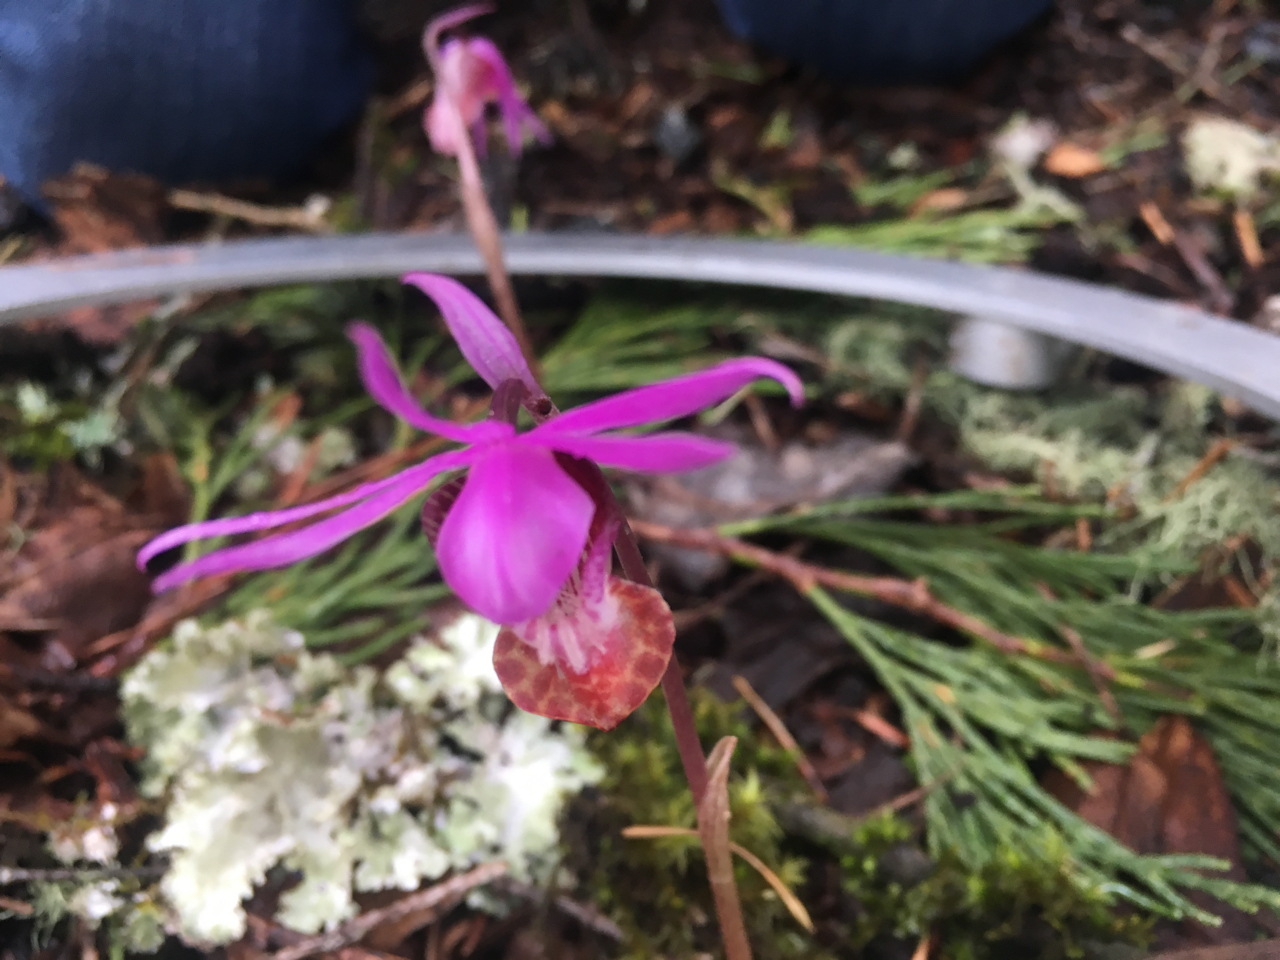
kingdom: Plantae
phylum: Tracheophyta
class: Liliopsida
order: Asparagales
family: Orchidaceae
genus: Calypso
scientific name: Calypso bulbosa
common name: Calypso
